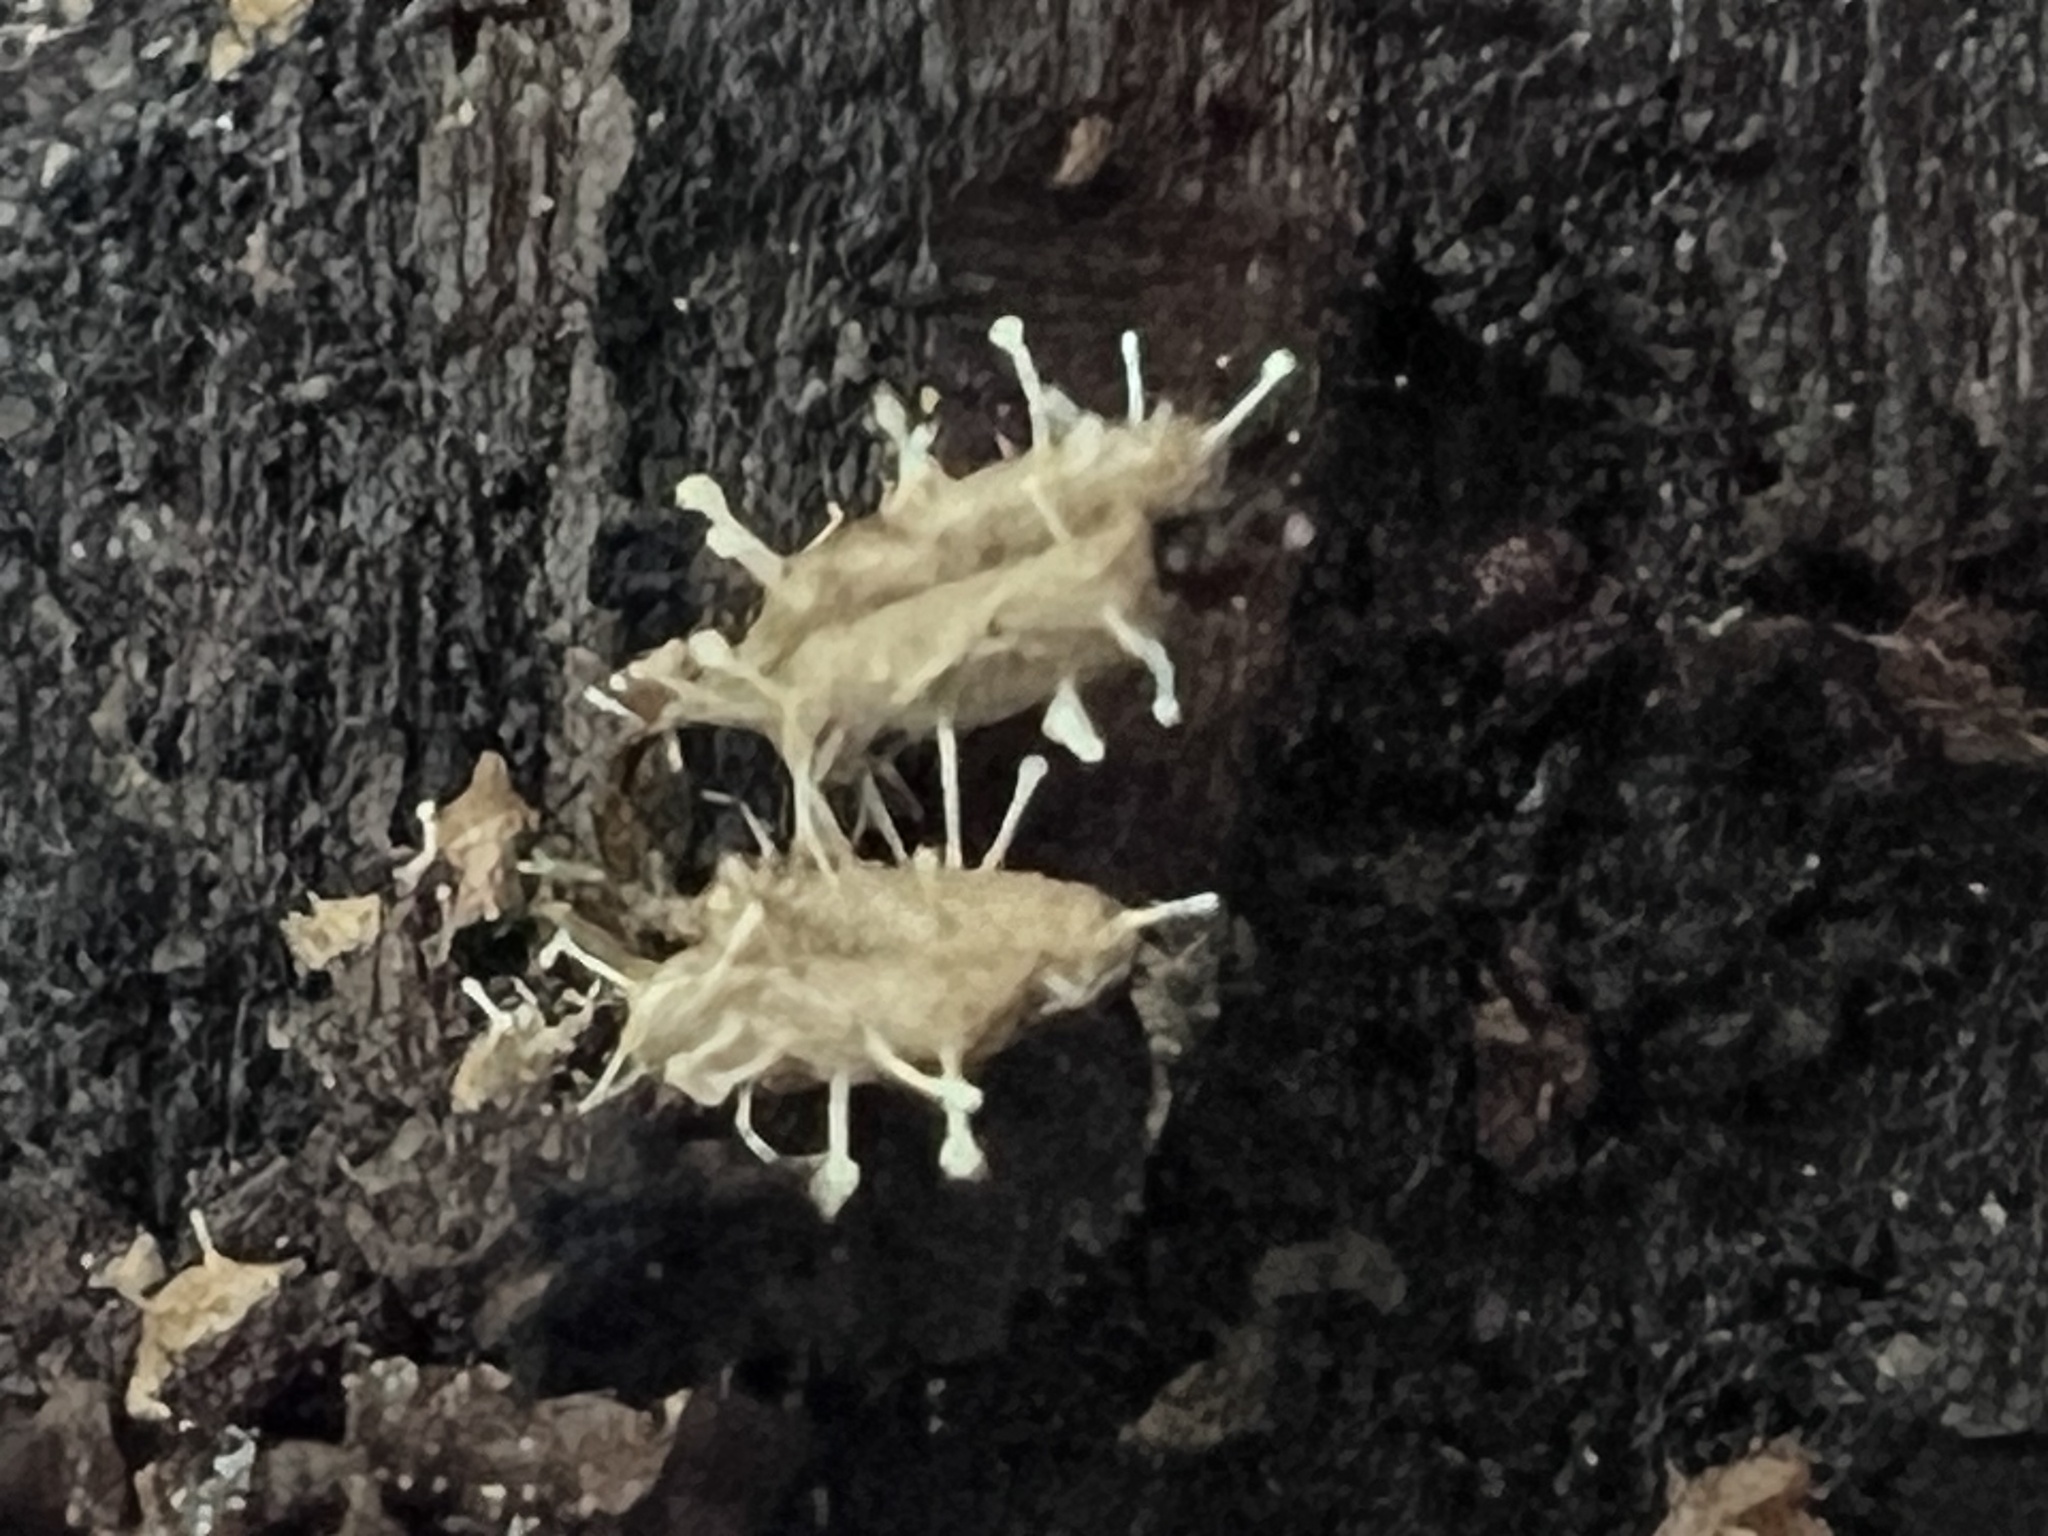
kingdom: Fungi
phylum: Ascomycota
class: Sordariomycetes
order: Hypocreales
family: Ophiocordycipitaceae
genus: Polycephalomyces
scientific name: Polycephalomyces tomentosus
